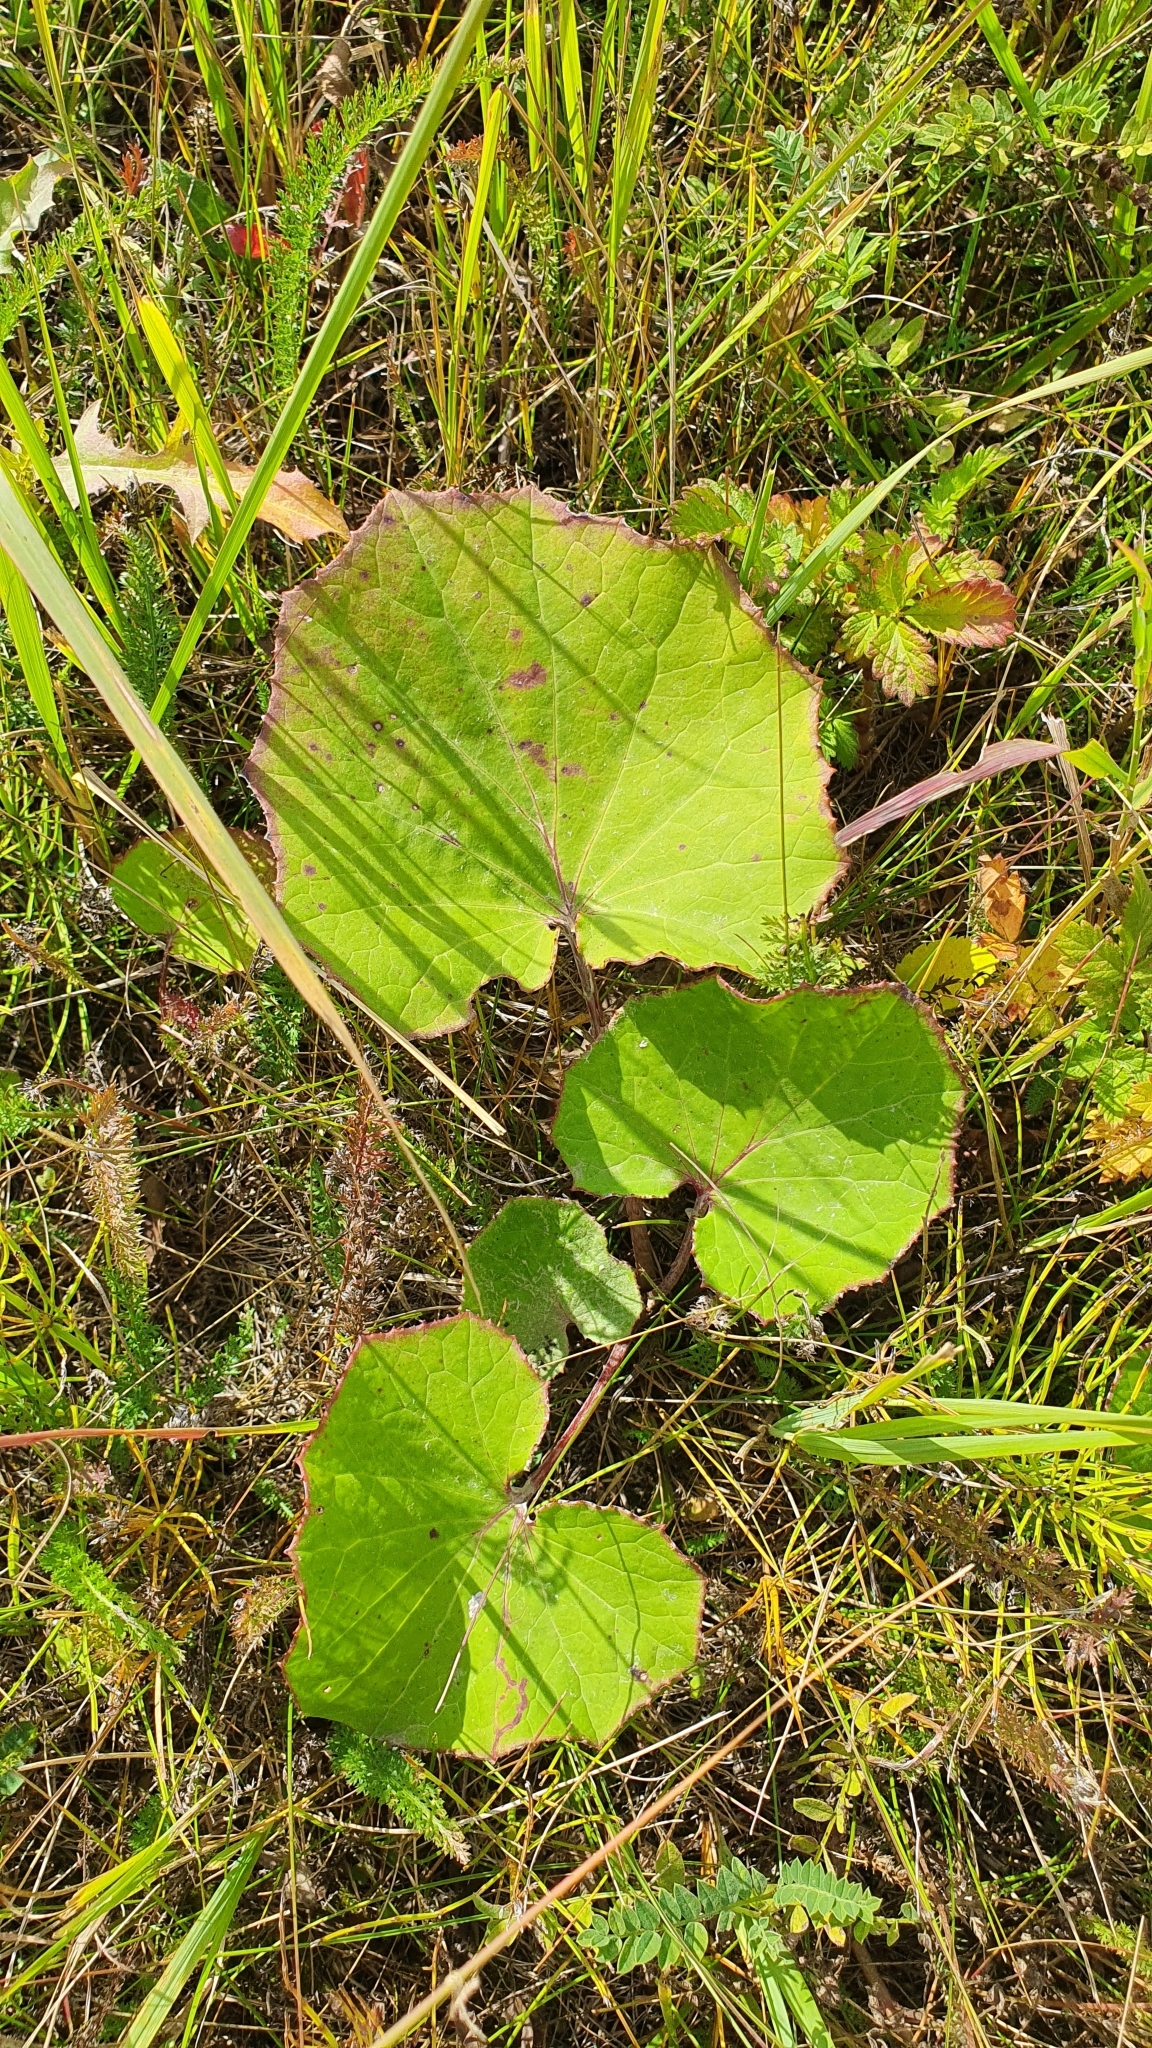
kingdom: Plantae
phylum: Tracheophyta
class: Magnoliopsida
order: Asterales
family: Asteraceae
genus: Tussilago
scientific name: Tussilago farfara
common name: Coltsfoot
